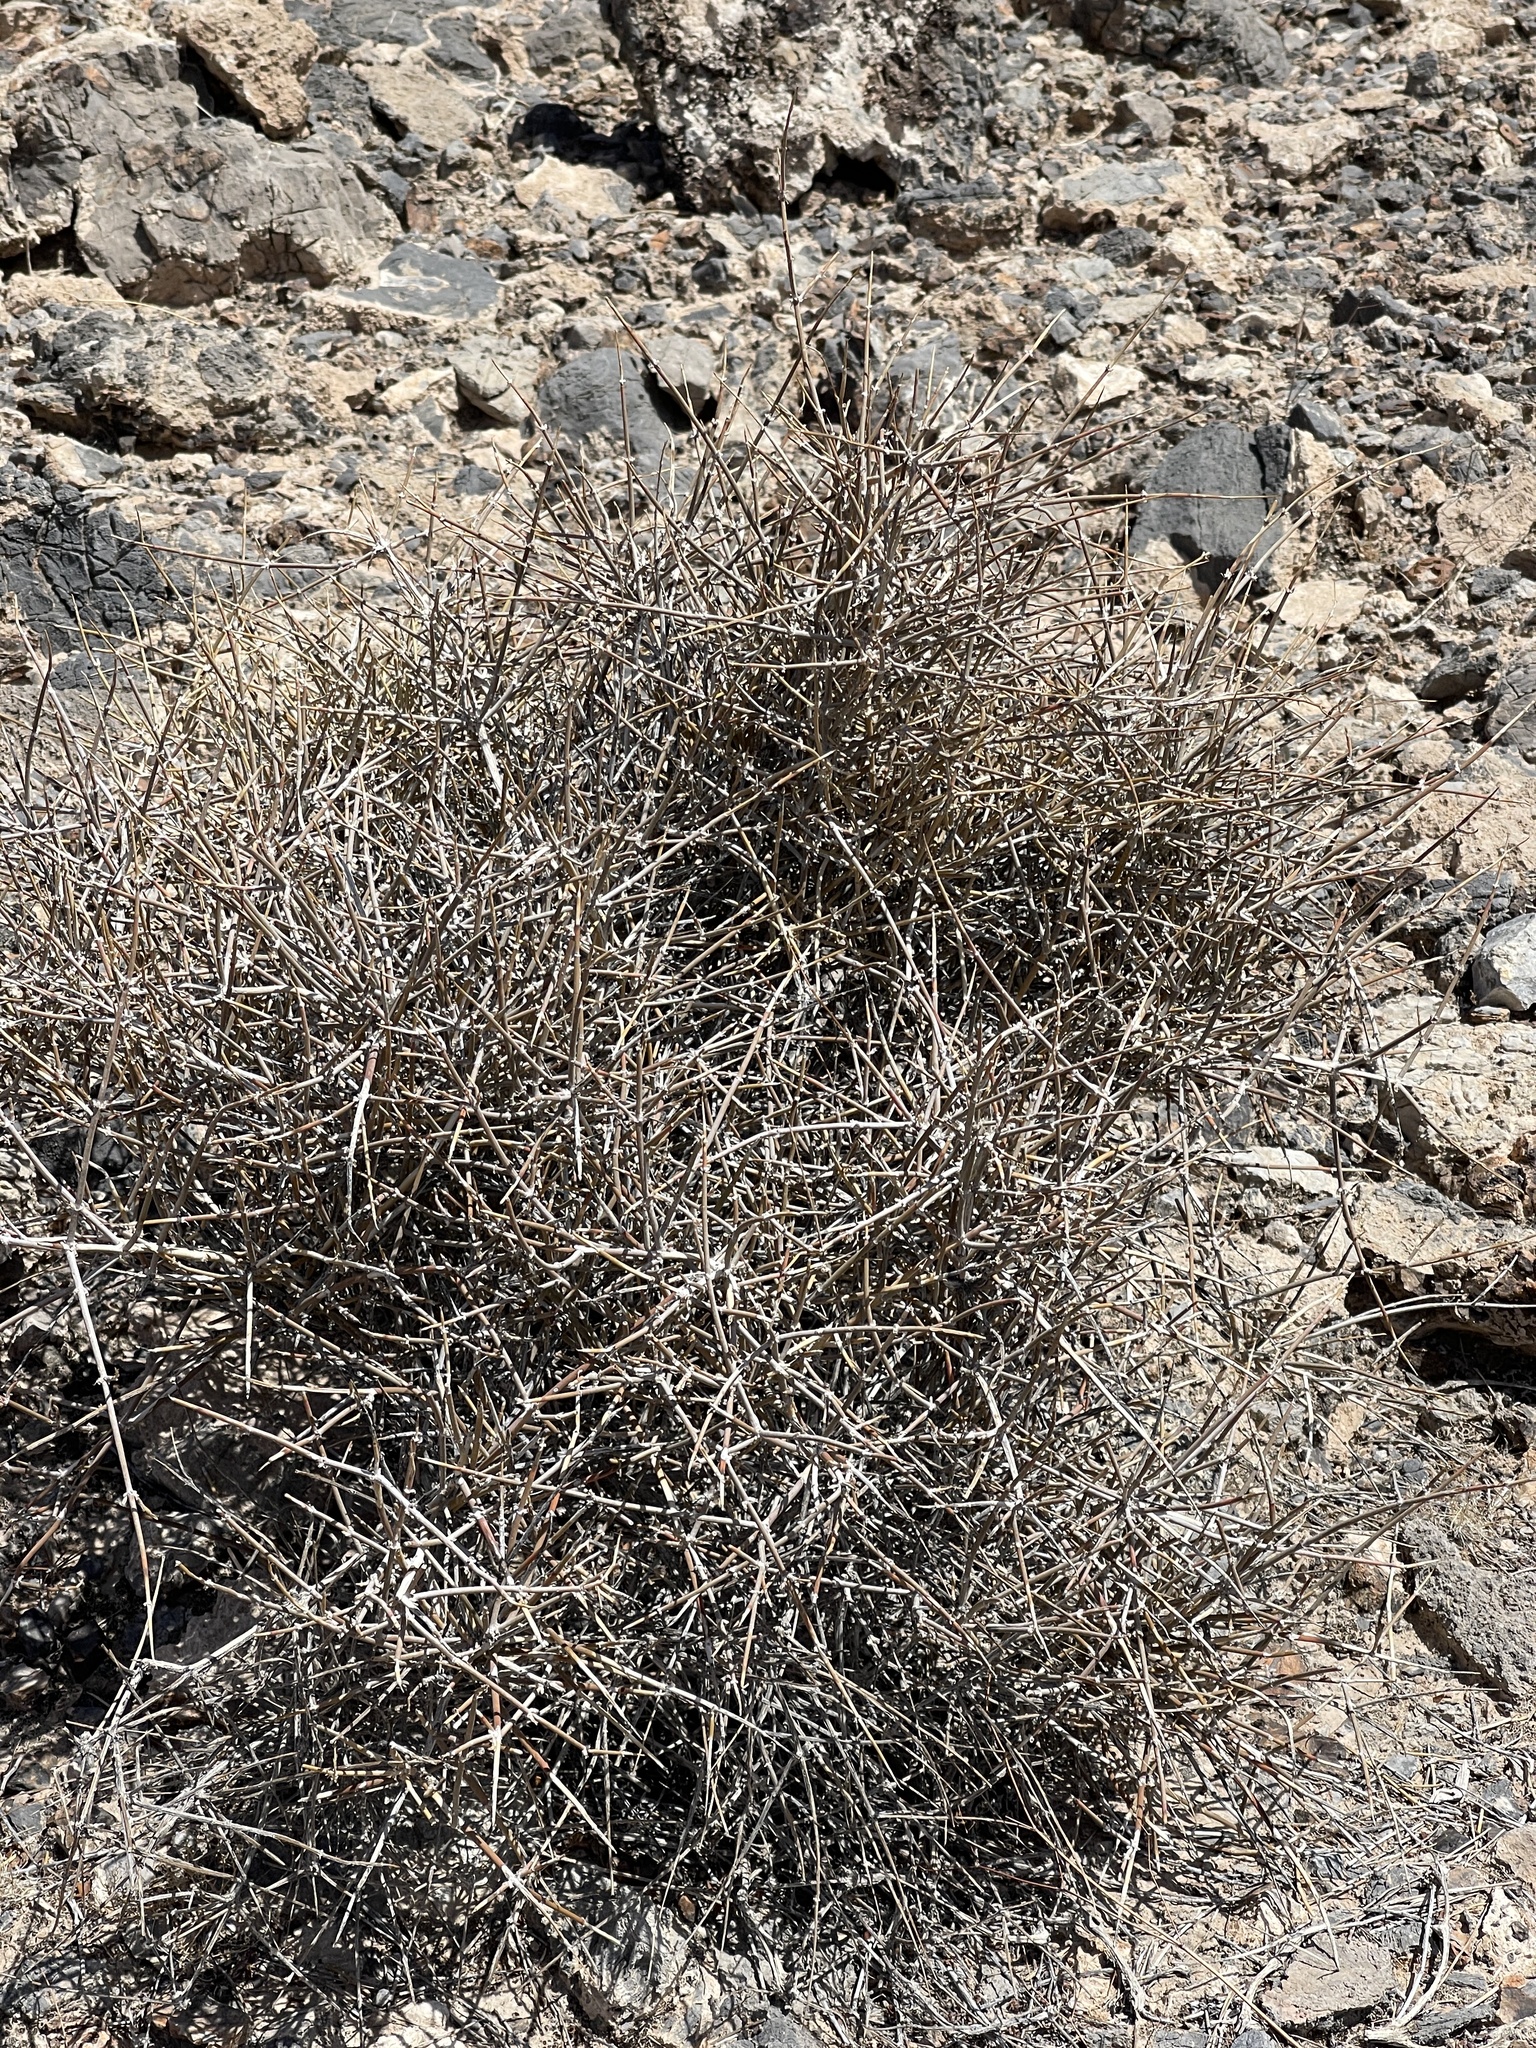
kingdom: Plantae
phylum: Tracheophyta
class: Gnetopsida
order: Ephedrales
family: Ephedraceae
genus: Ephedra
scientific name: Ephedra nevadensis
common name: Gray ephedra
